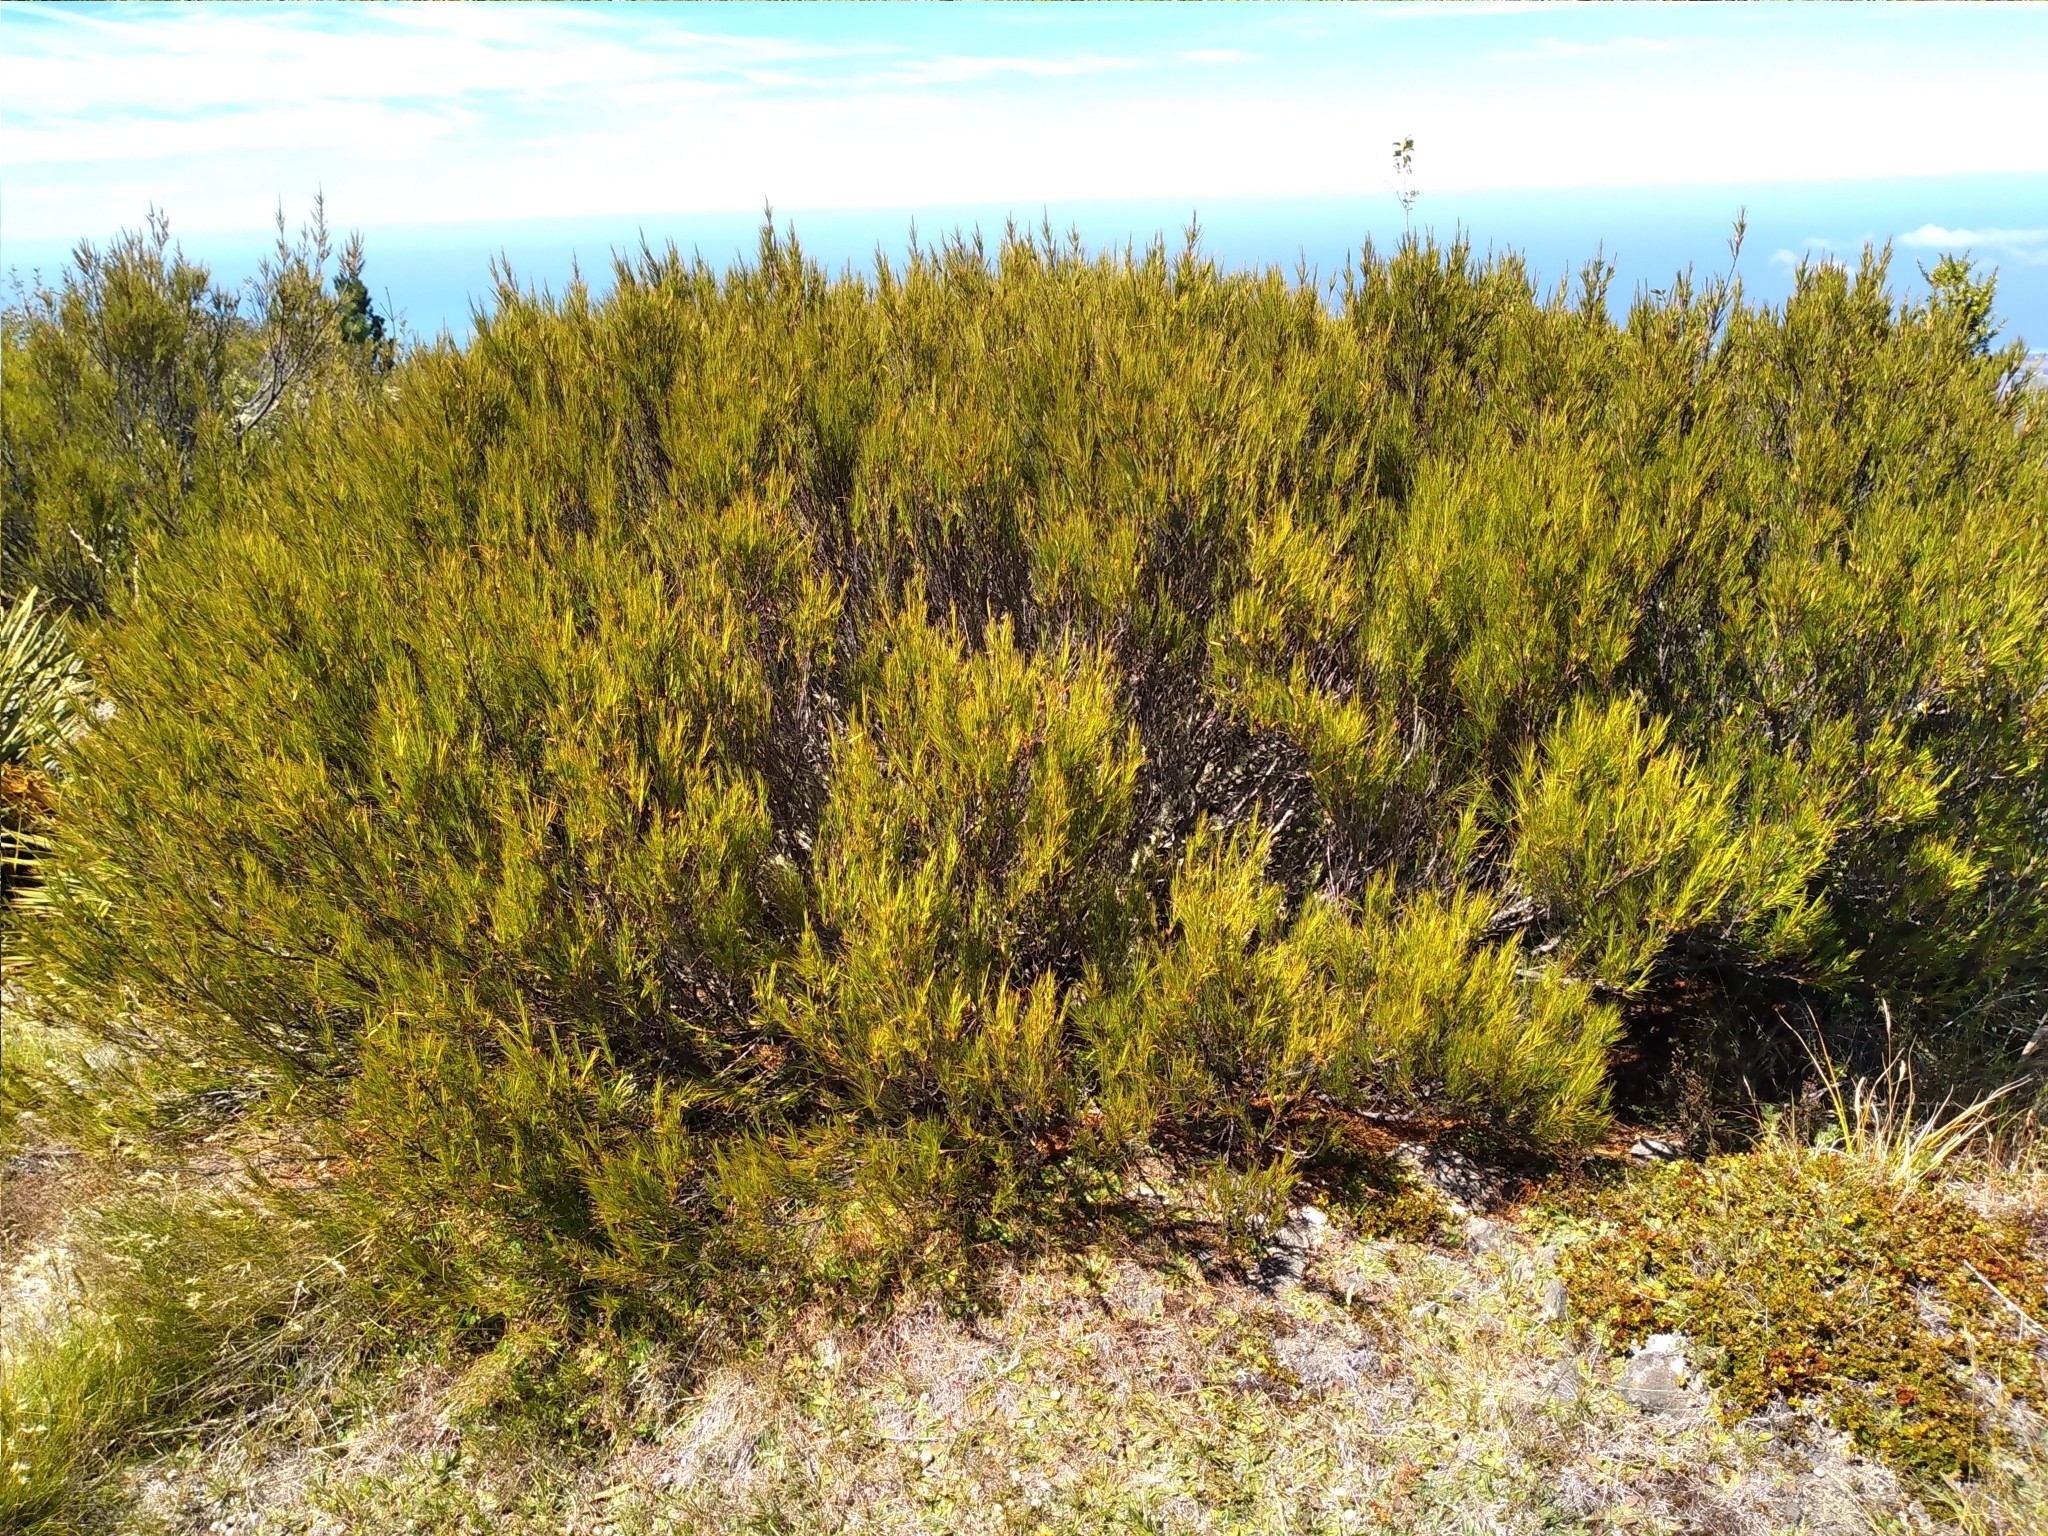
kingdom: Plantae
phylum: Tracheophyta
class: Magnoliopsida
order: Ericales
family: Ericaceae
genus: Dracophyllum
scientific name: Dracophyllum longifolium
